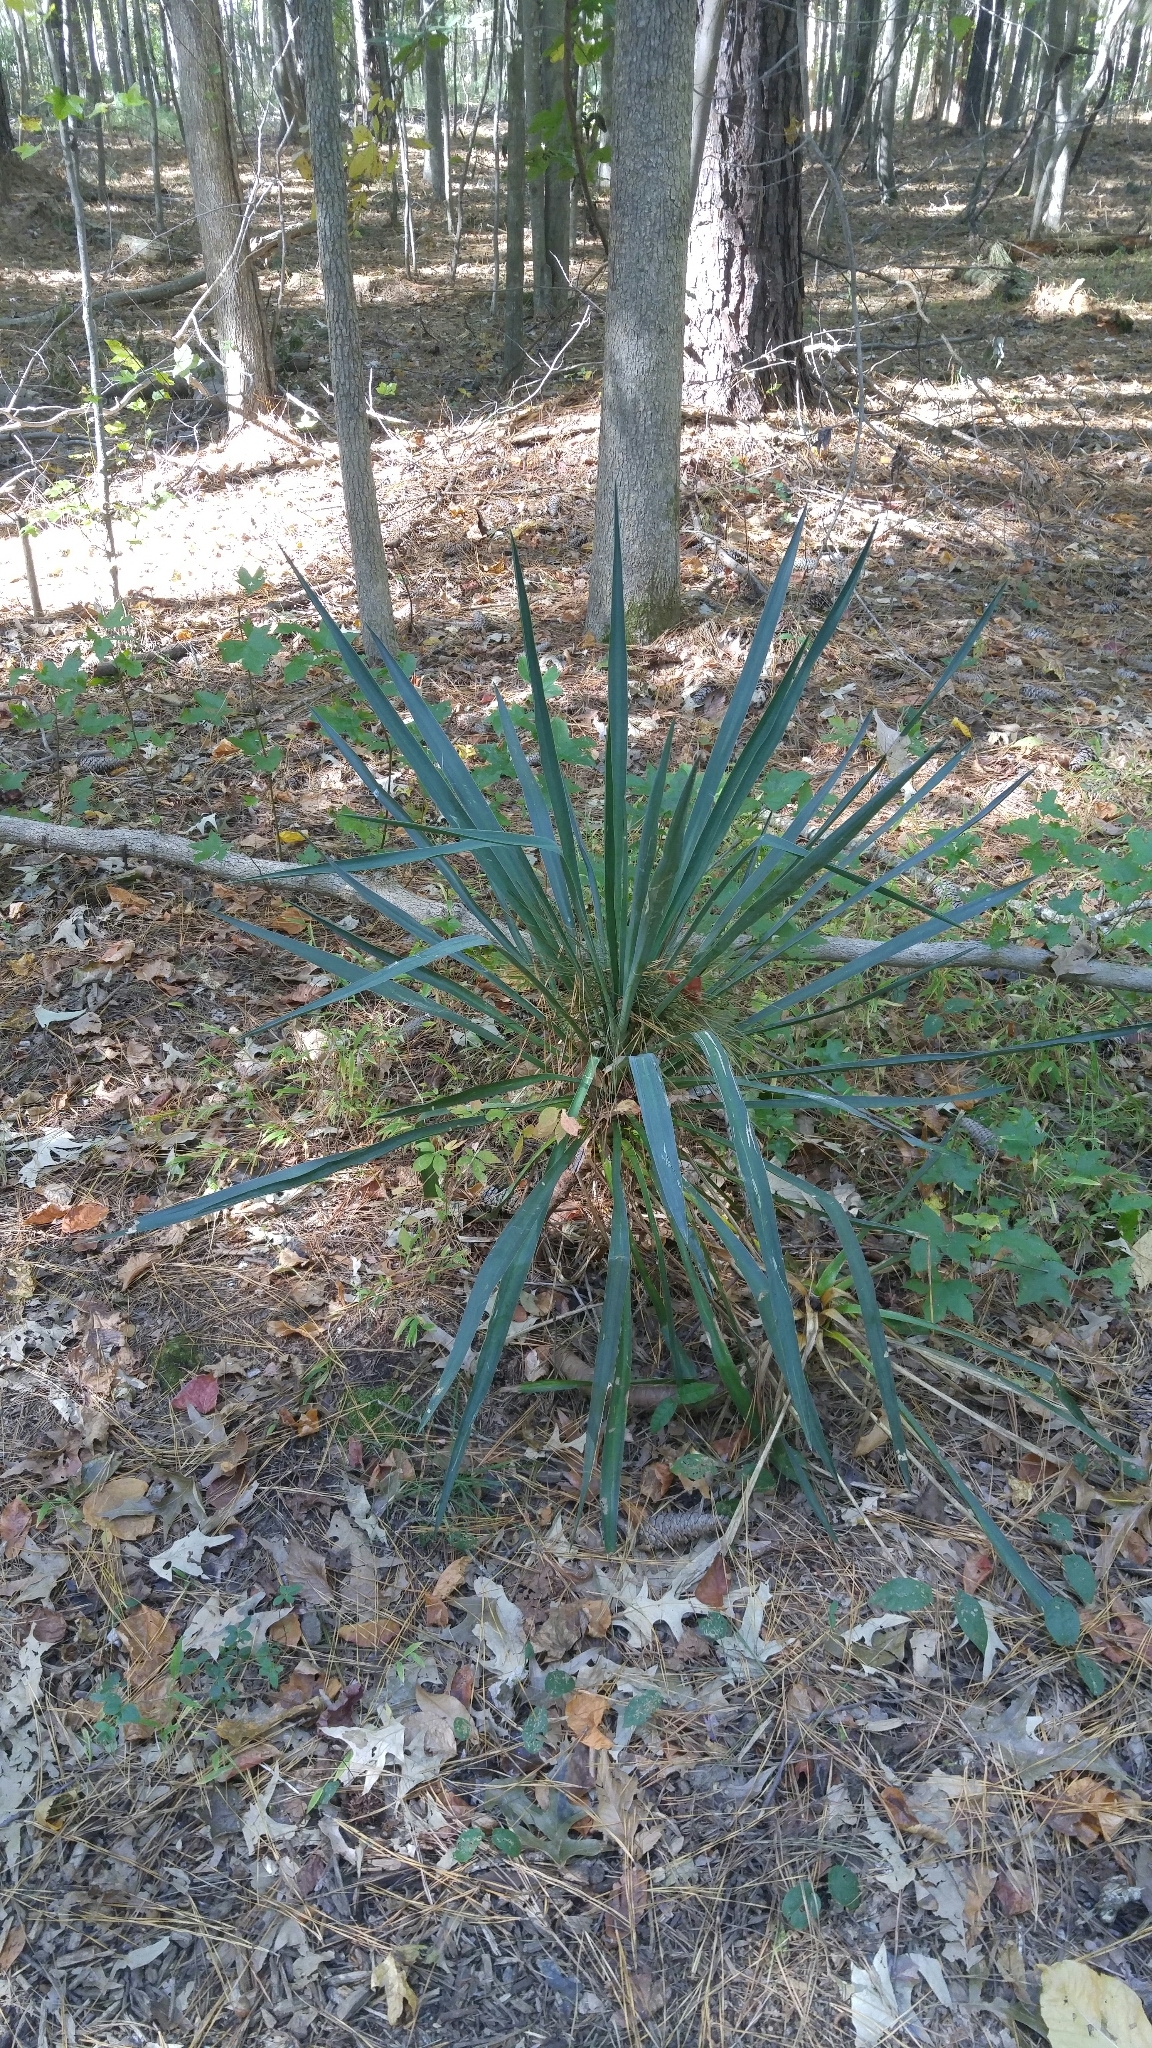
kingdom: Plantae
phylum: Tracheophyta
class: Liliopsida
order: Asparagales
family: Asparagaceae
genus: Yucca
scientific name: Yucca filamentosa
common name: Adam's-needle
